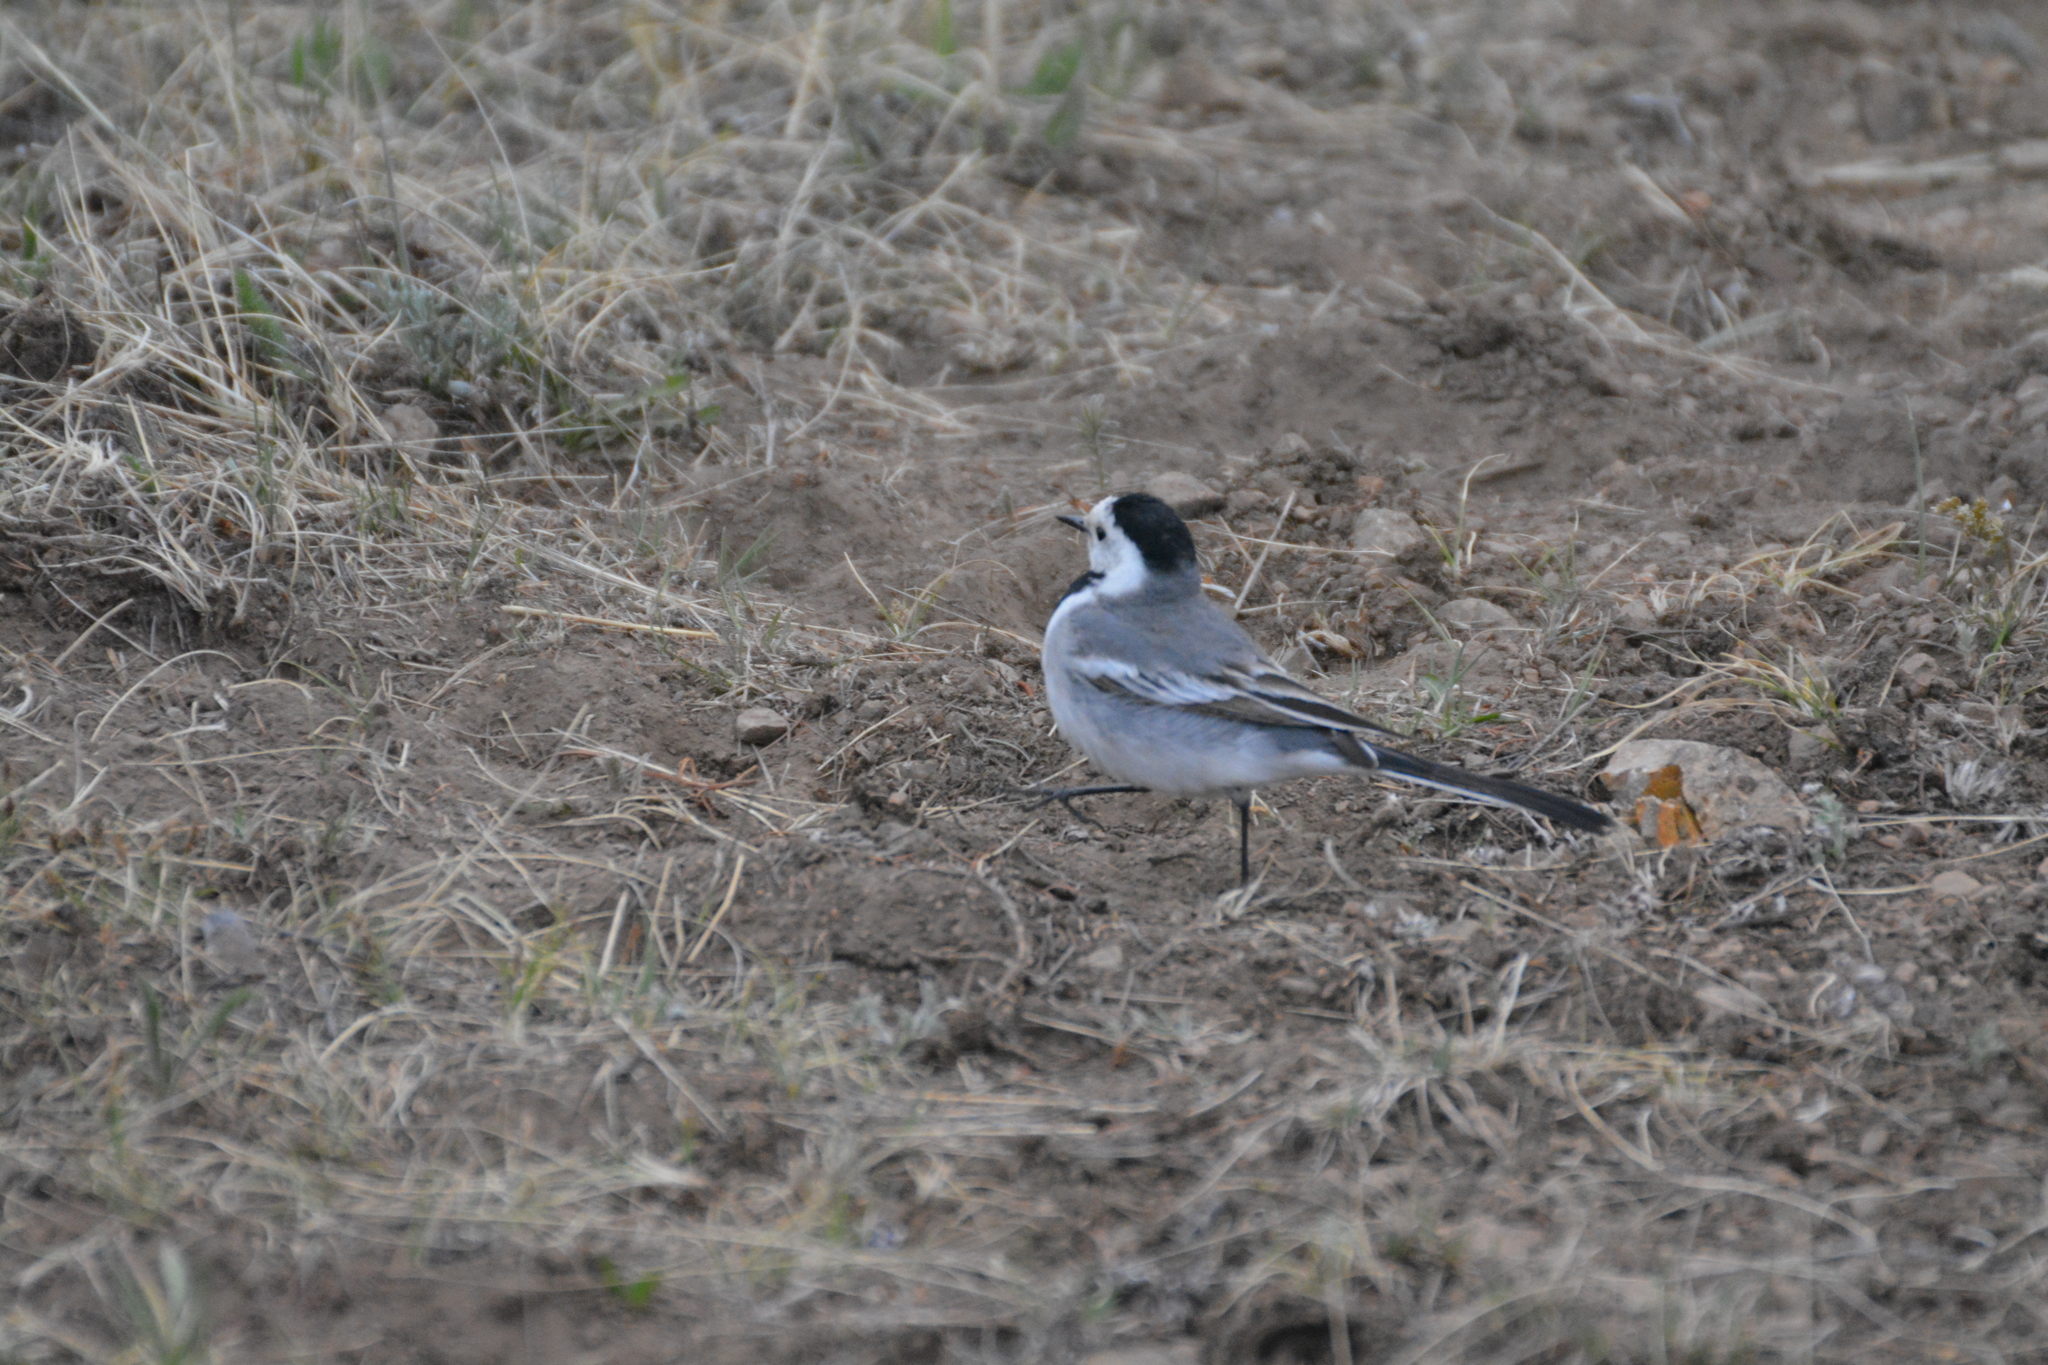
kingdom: Animalia
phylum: Chordata
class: Aves
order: Passeriformes
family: Motacillidae
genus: Motacilla
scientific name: Motacilla alba
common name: White wagtail
